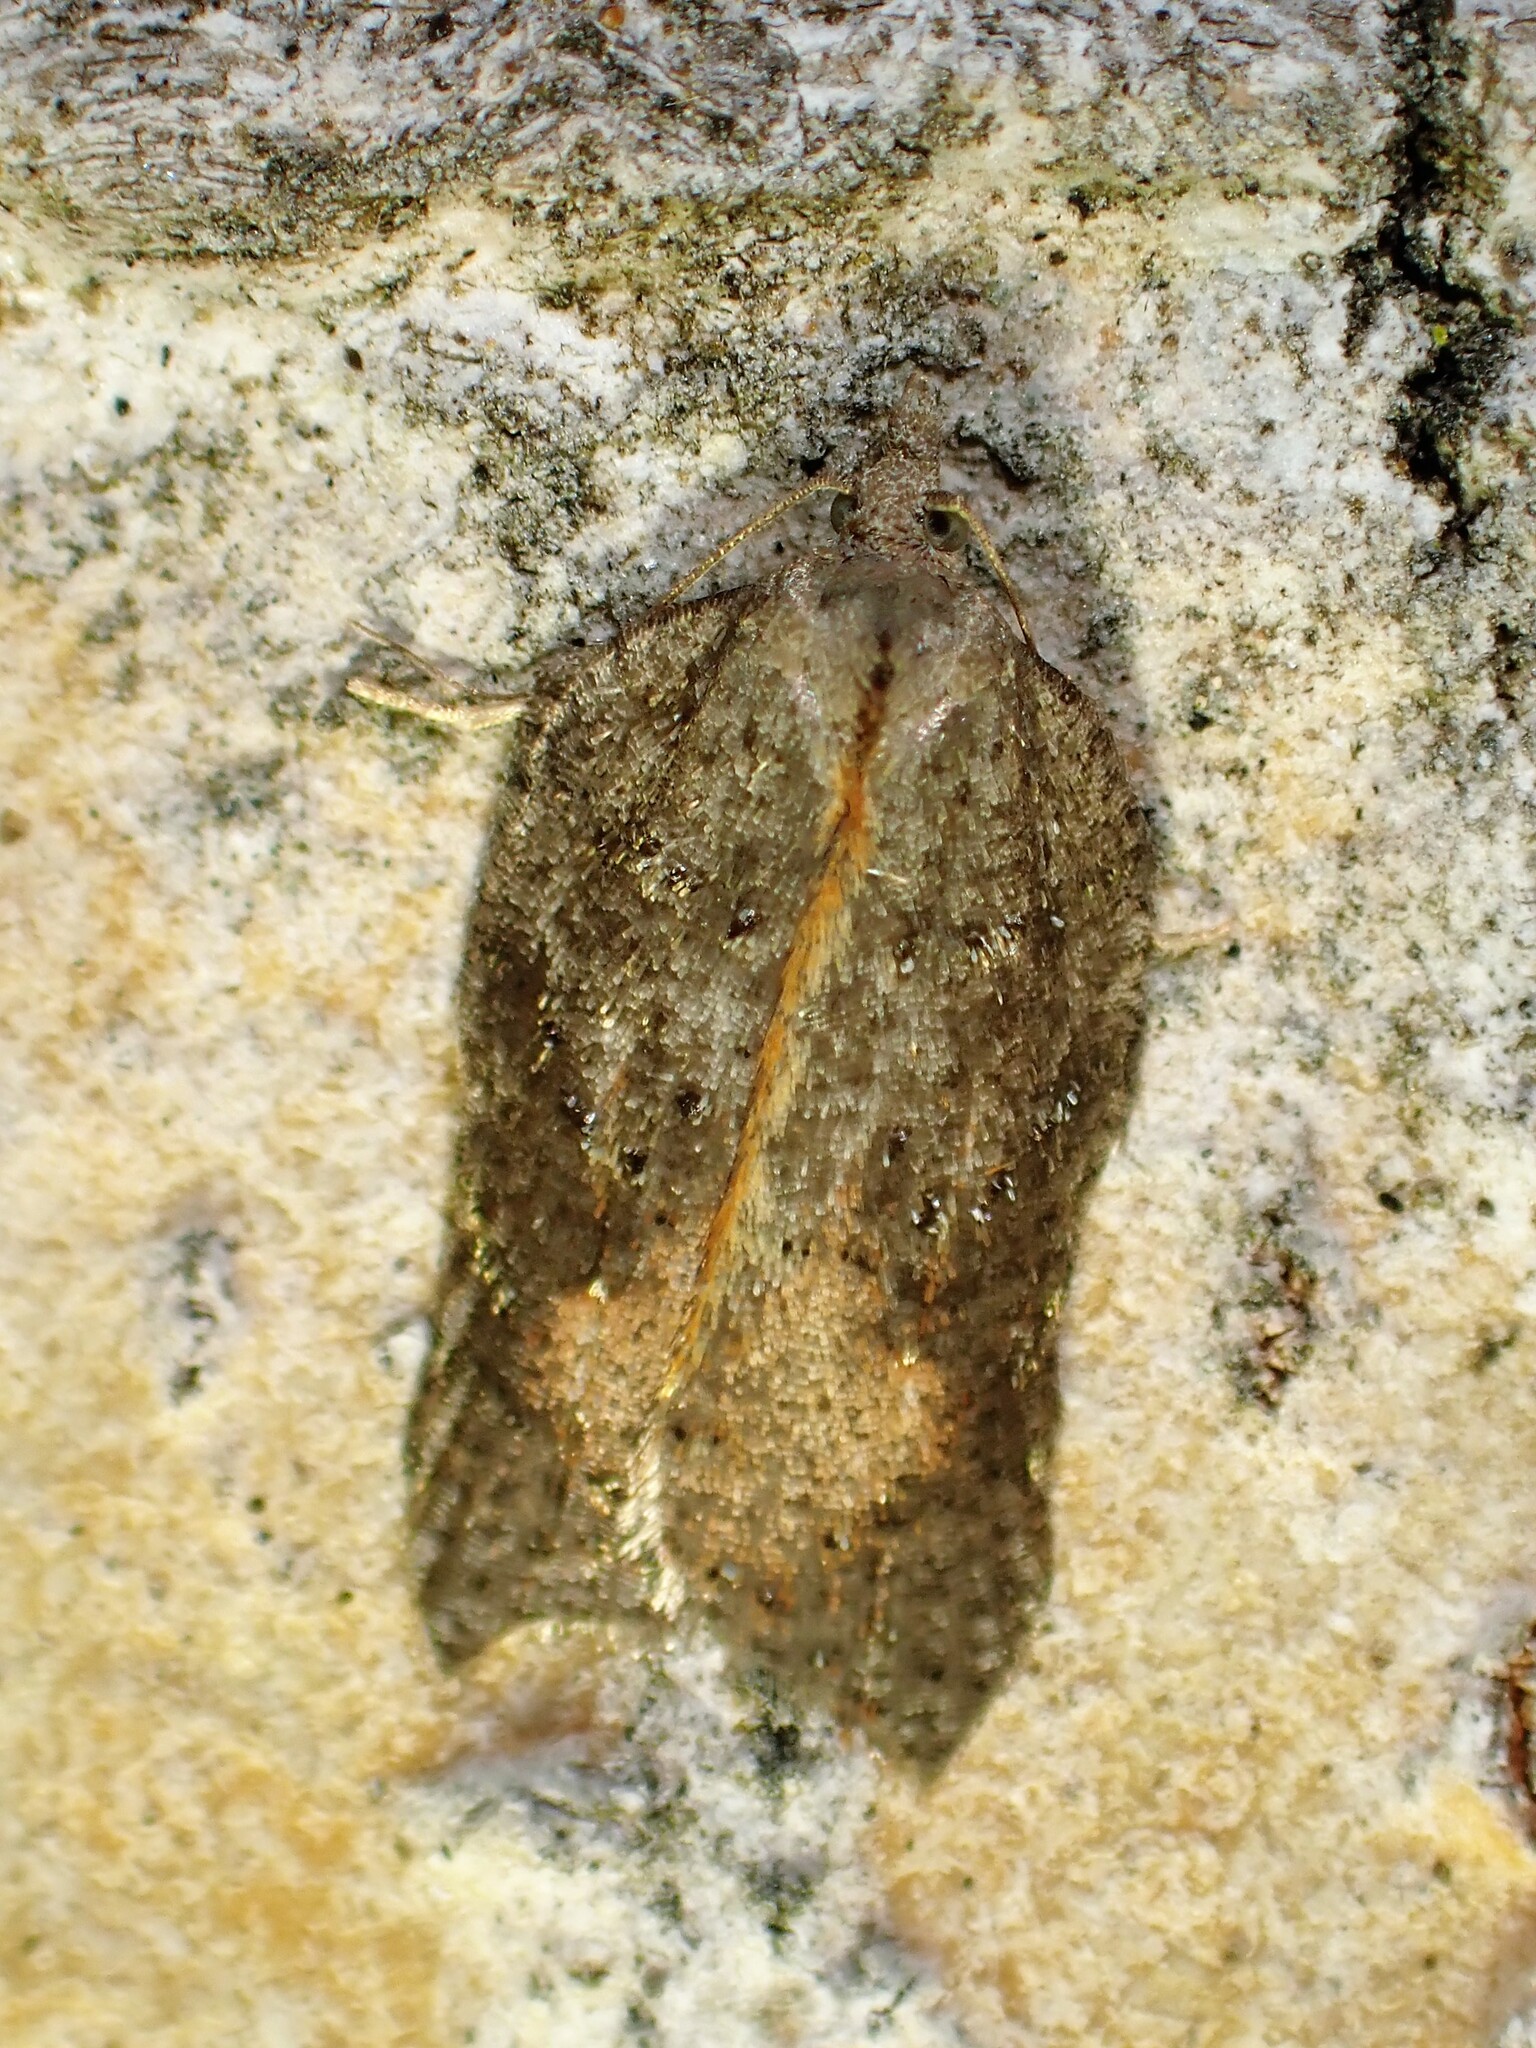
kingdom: Animalia
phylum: Arthropoda
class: Insecta
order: Lepidoptera
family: Tortricidae
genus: Acleris
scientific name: Acleris effractana
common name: Hook-winged tortrix moth
